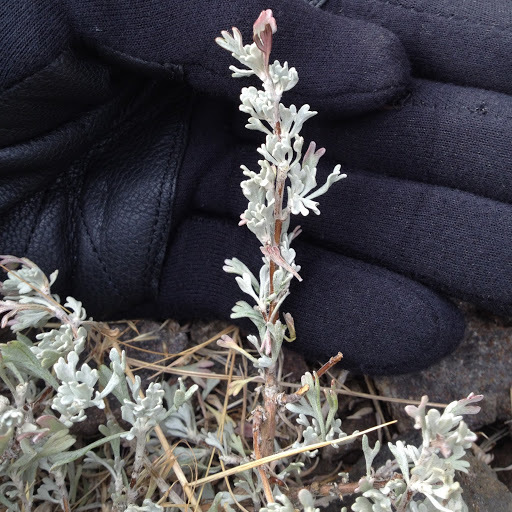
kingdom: Plantae
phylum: Tracheophyta
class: Magnoliopsida
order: Asterales
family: Asteraceae
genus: Artemisia
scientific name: Artemisia tridentata
